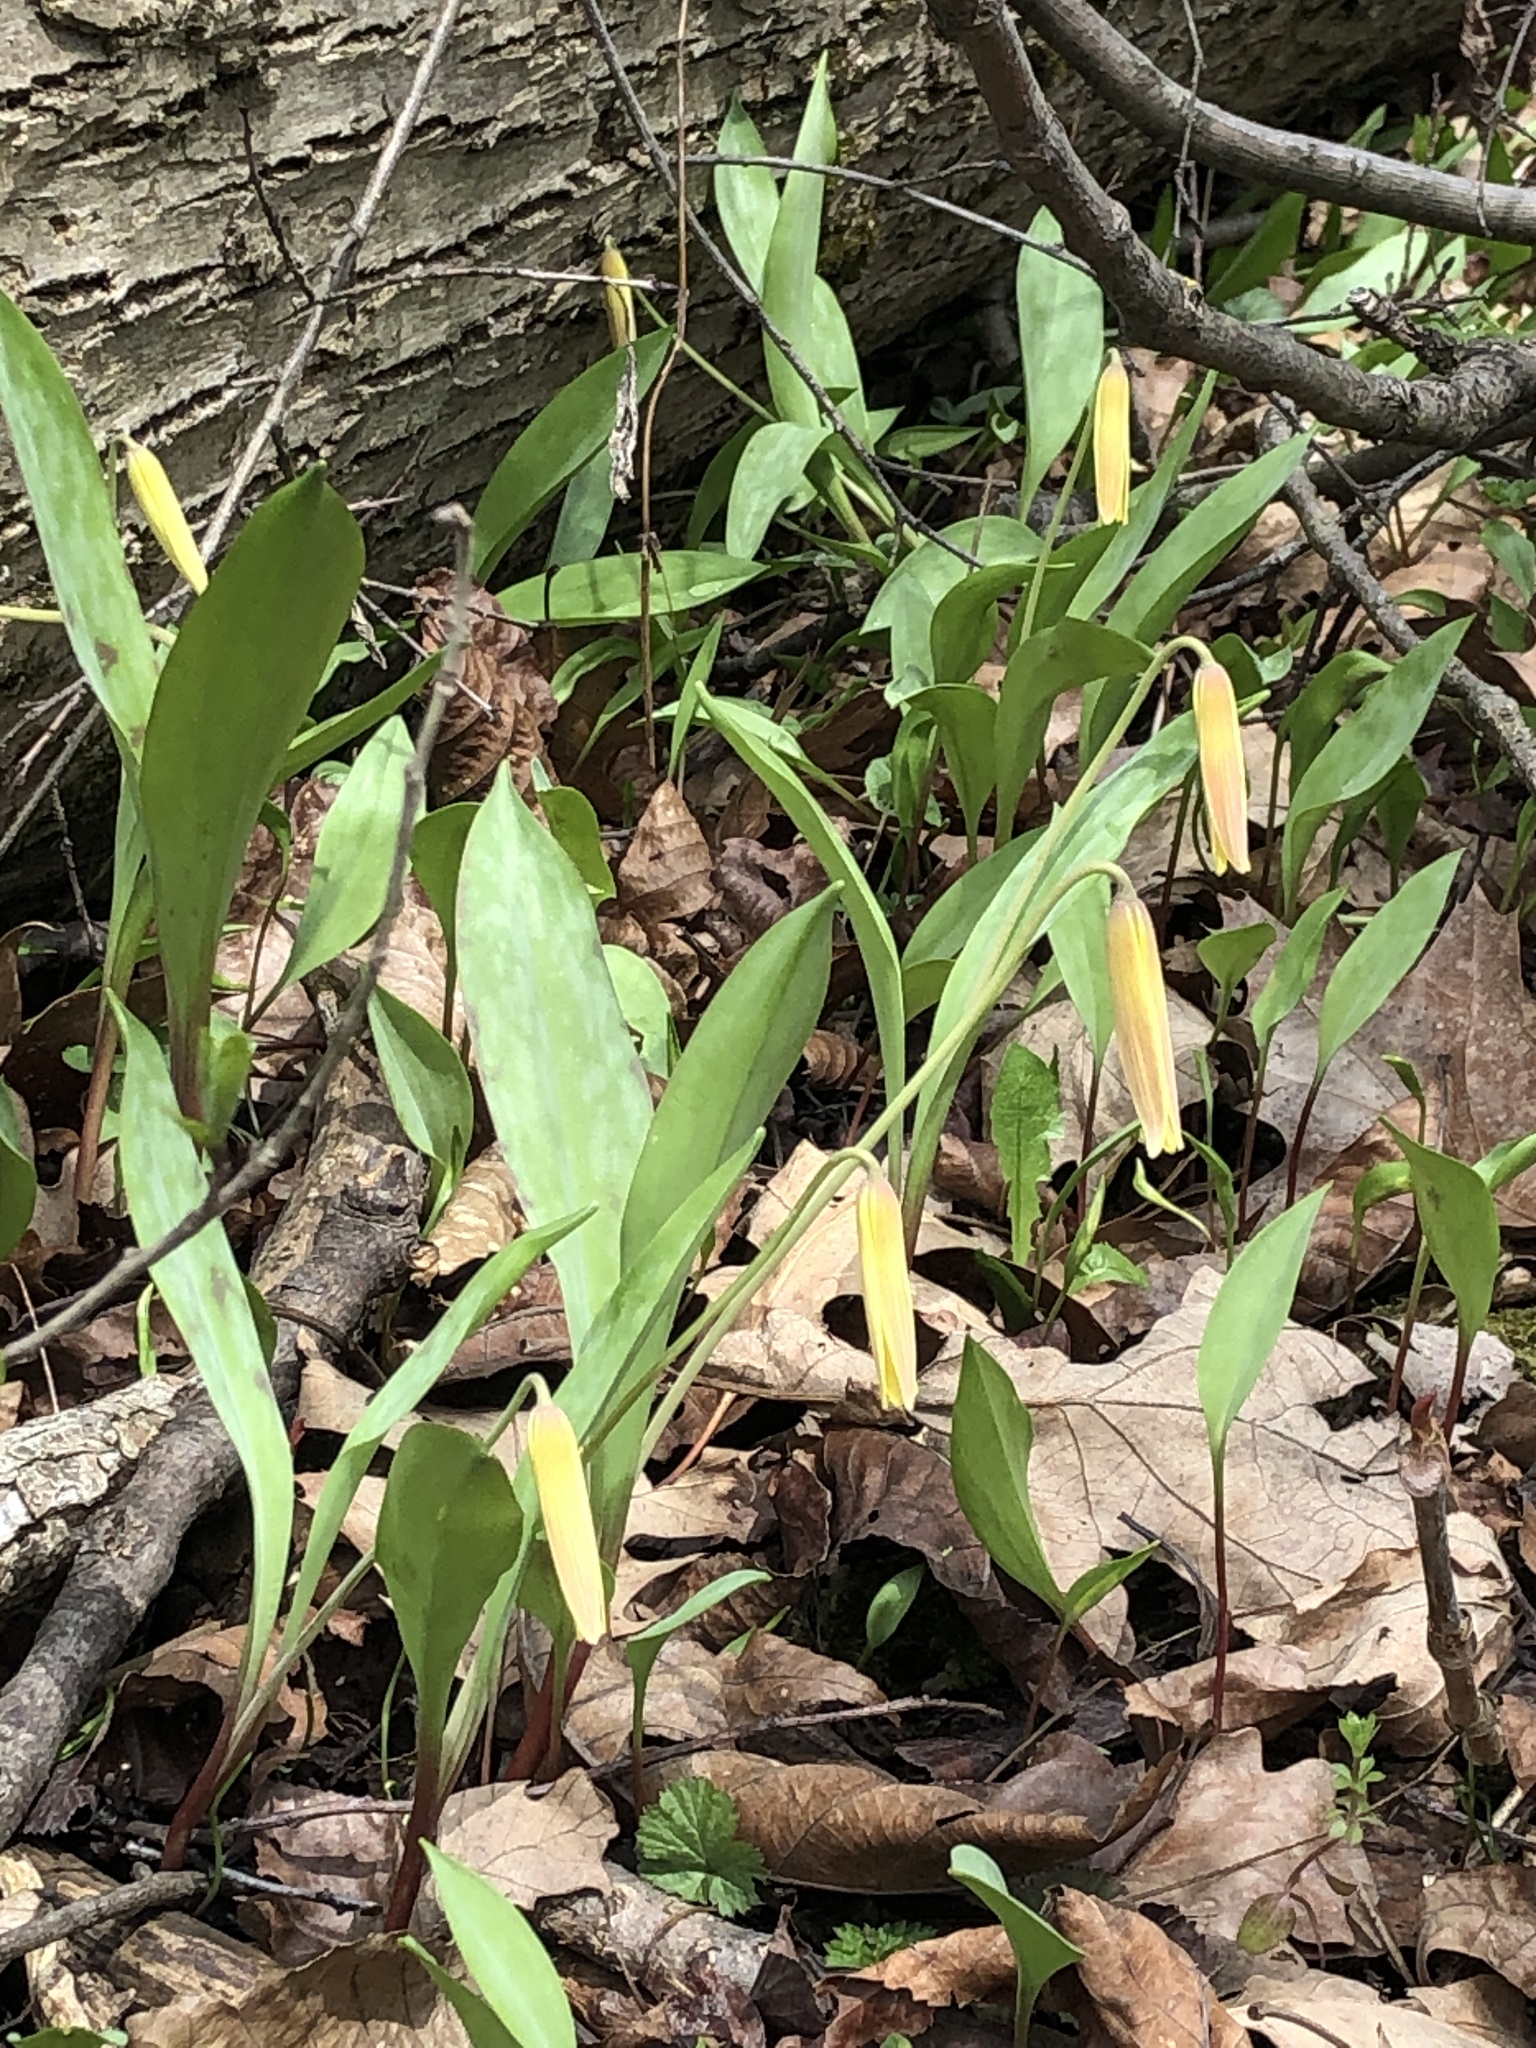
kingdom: Plantae
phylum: Tracheophyta
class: Liliopsida
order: Liliales
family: Liliaceae
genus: Erythronium
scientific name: Erythronium americanum
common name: Yellow adder's-tongue
